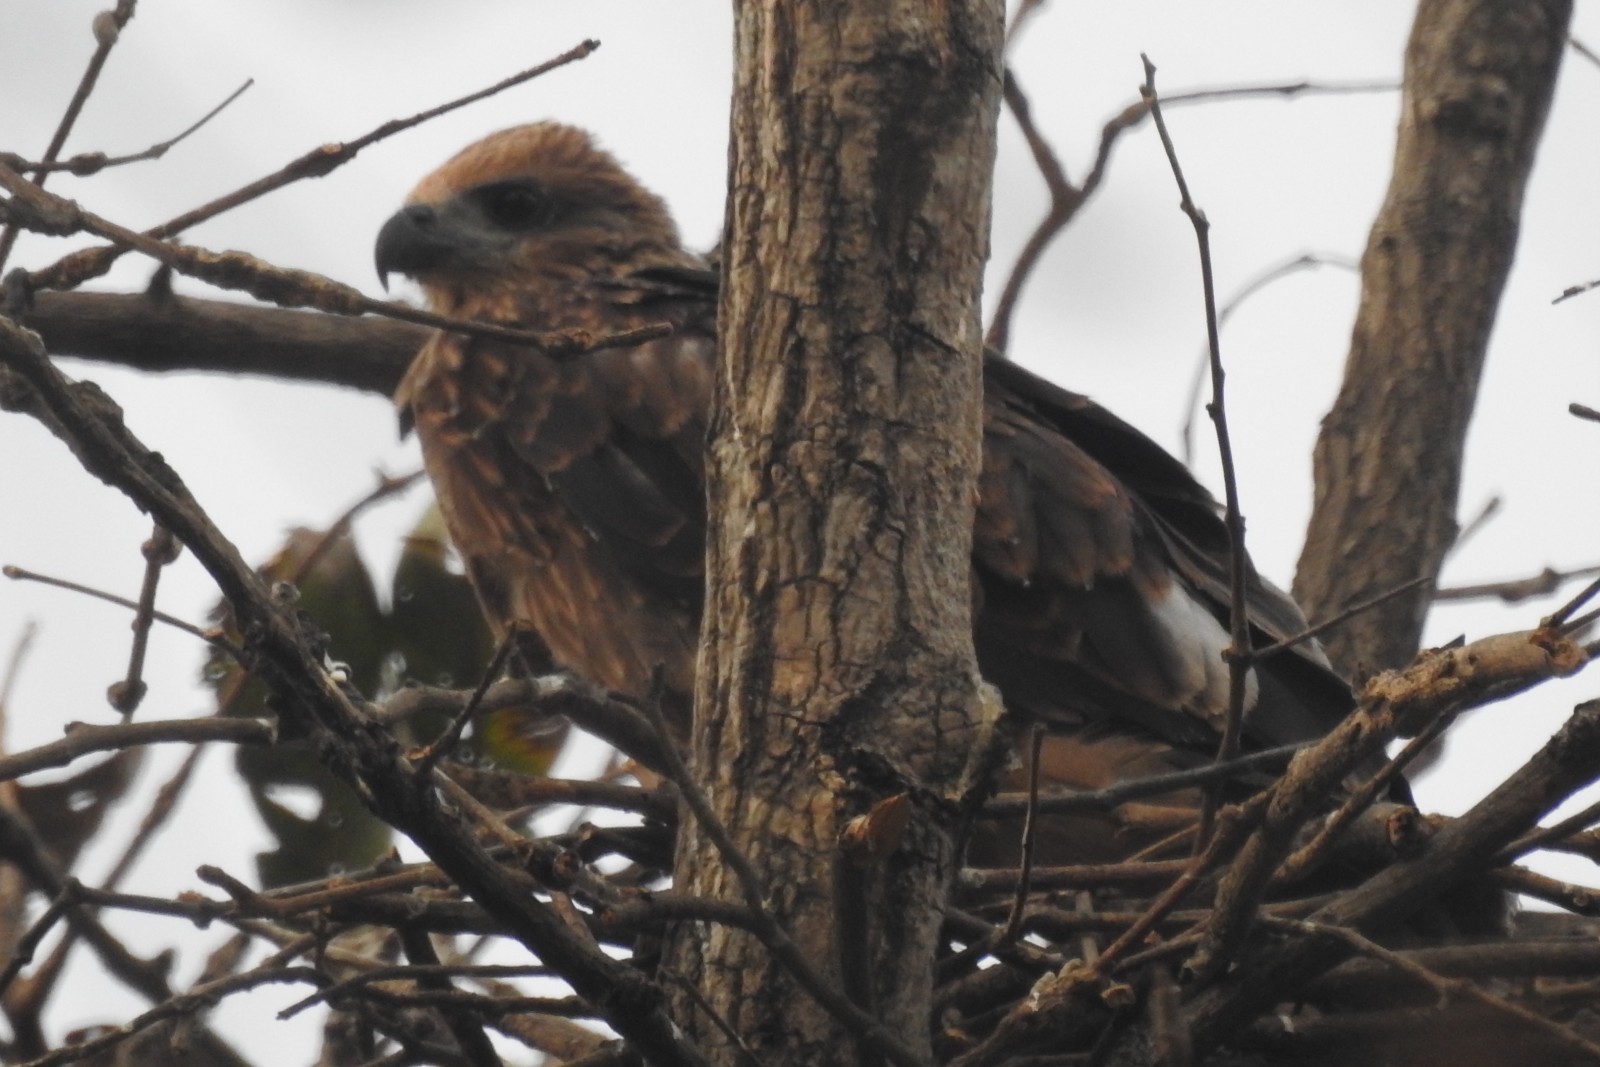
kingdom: Animalia
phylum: Chordata
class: Aves
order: Accipitriformes
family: Accipitridae
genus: Haliastur
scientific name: Haliastur indus
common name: Brahminy kite
